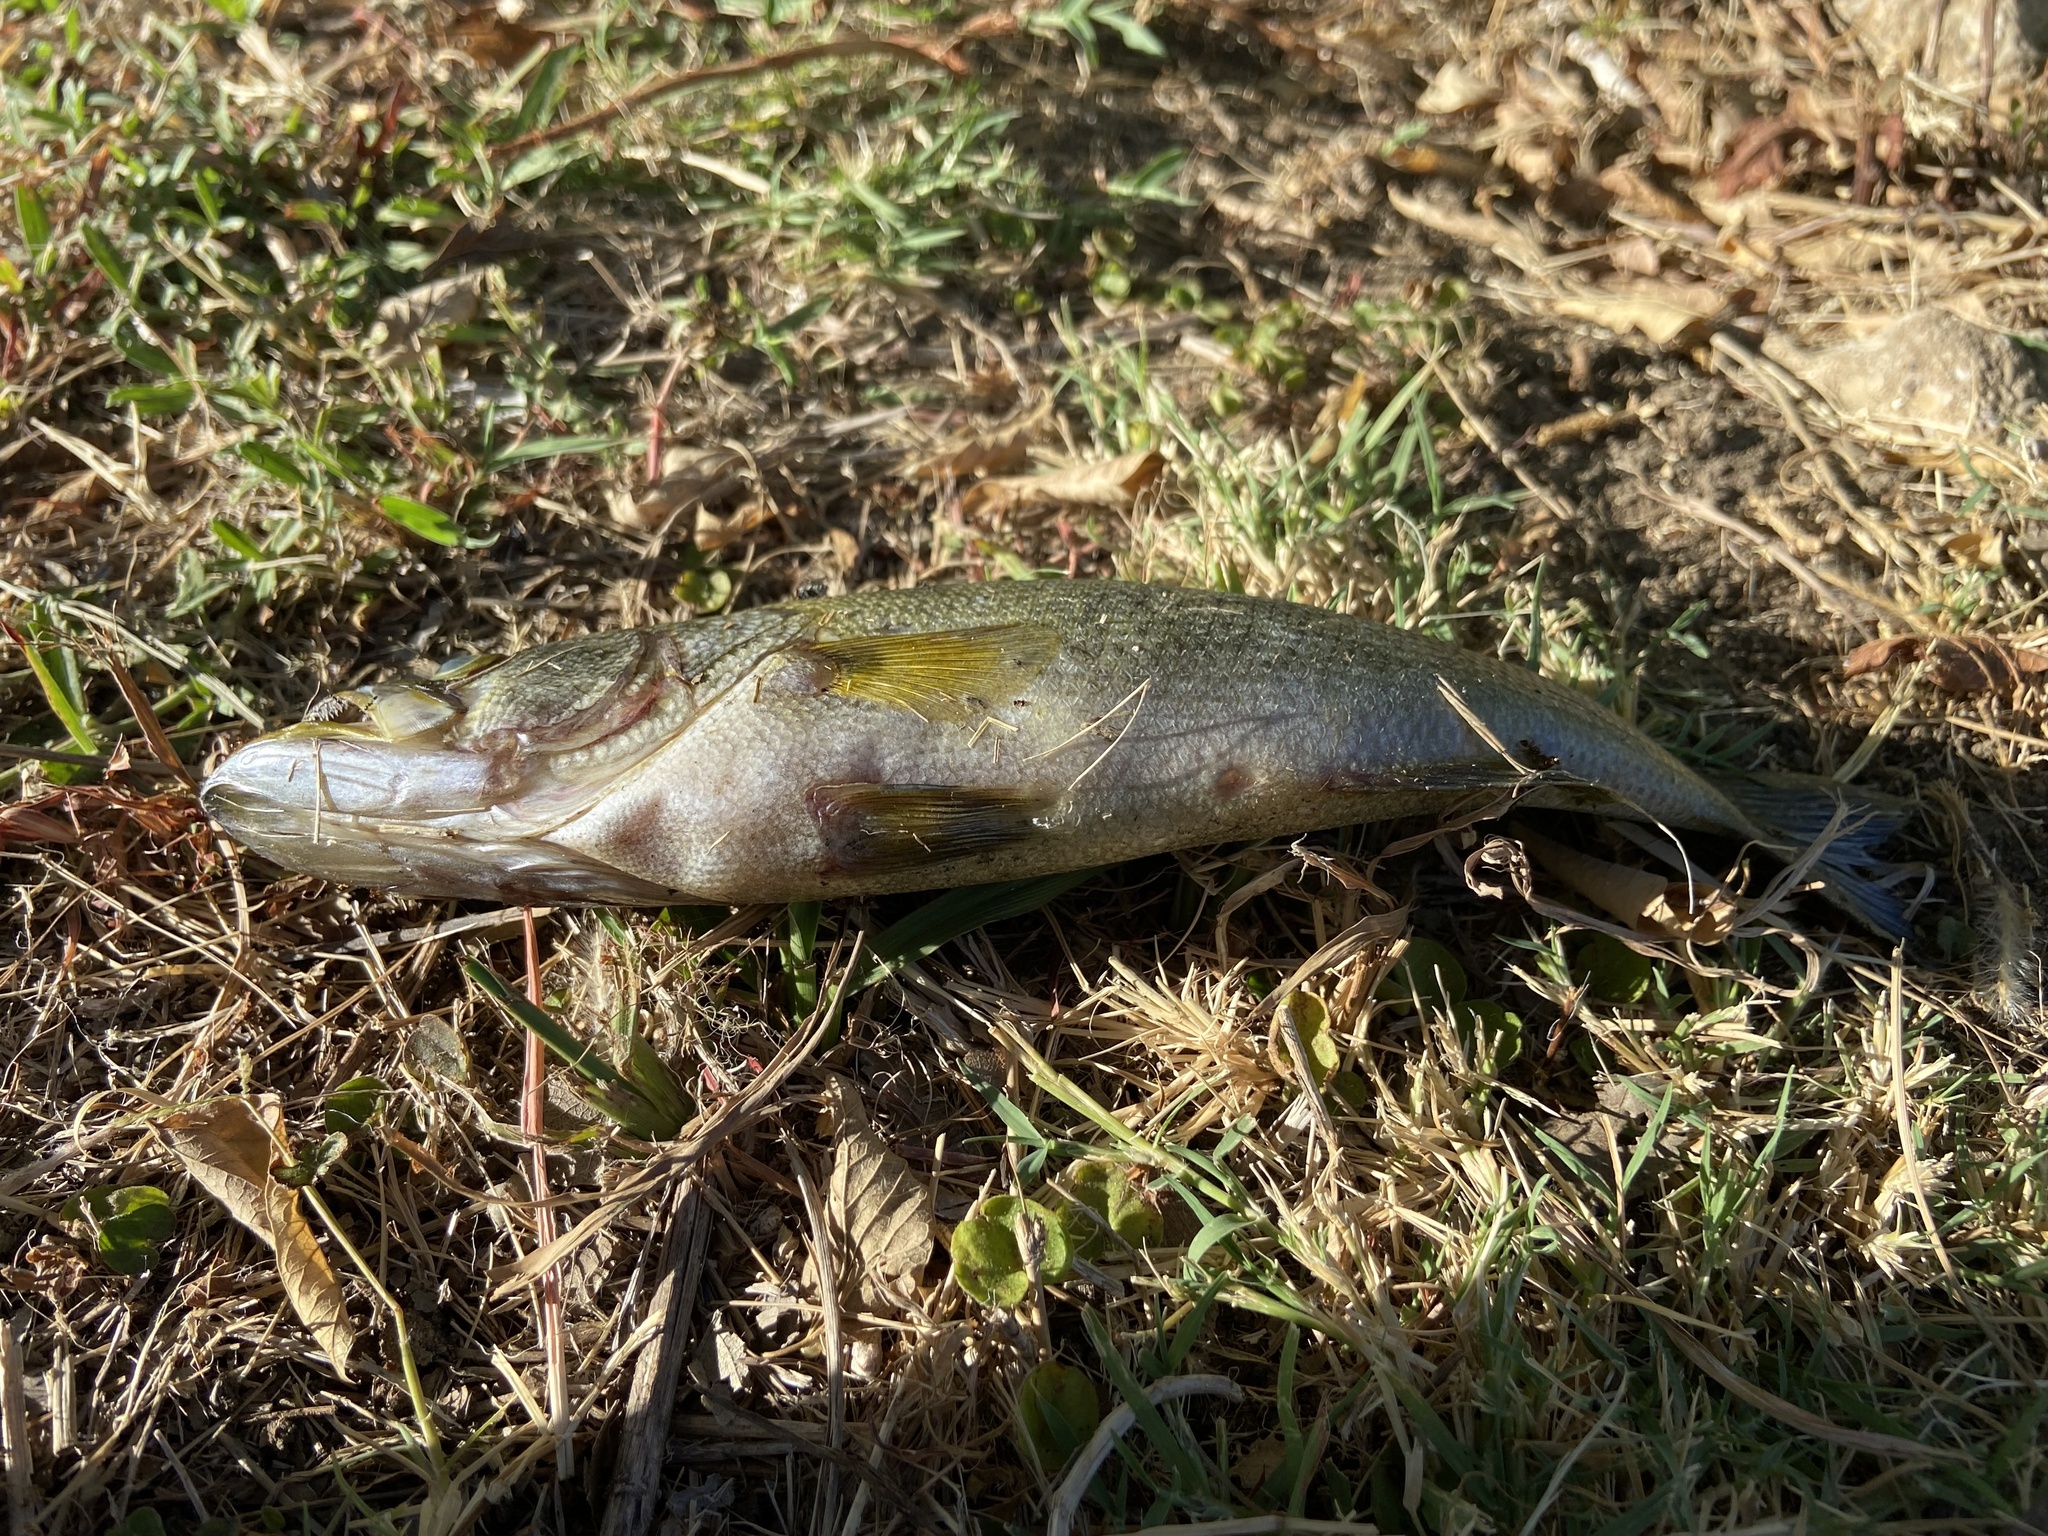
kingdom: Animalia
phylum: Chordata
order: Perciformes
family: Centrarchidae
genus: Micropterus
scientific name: Micropterus
